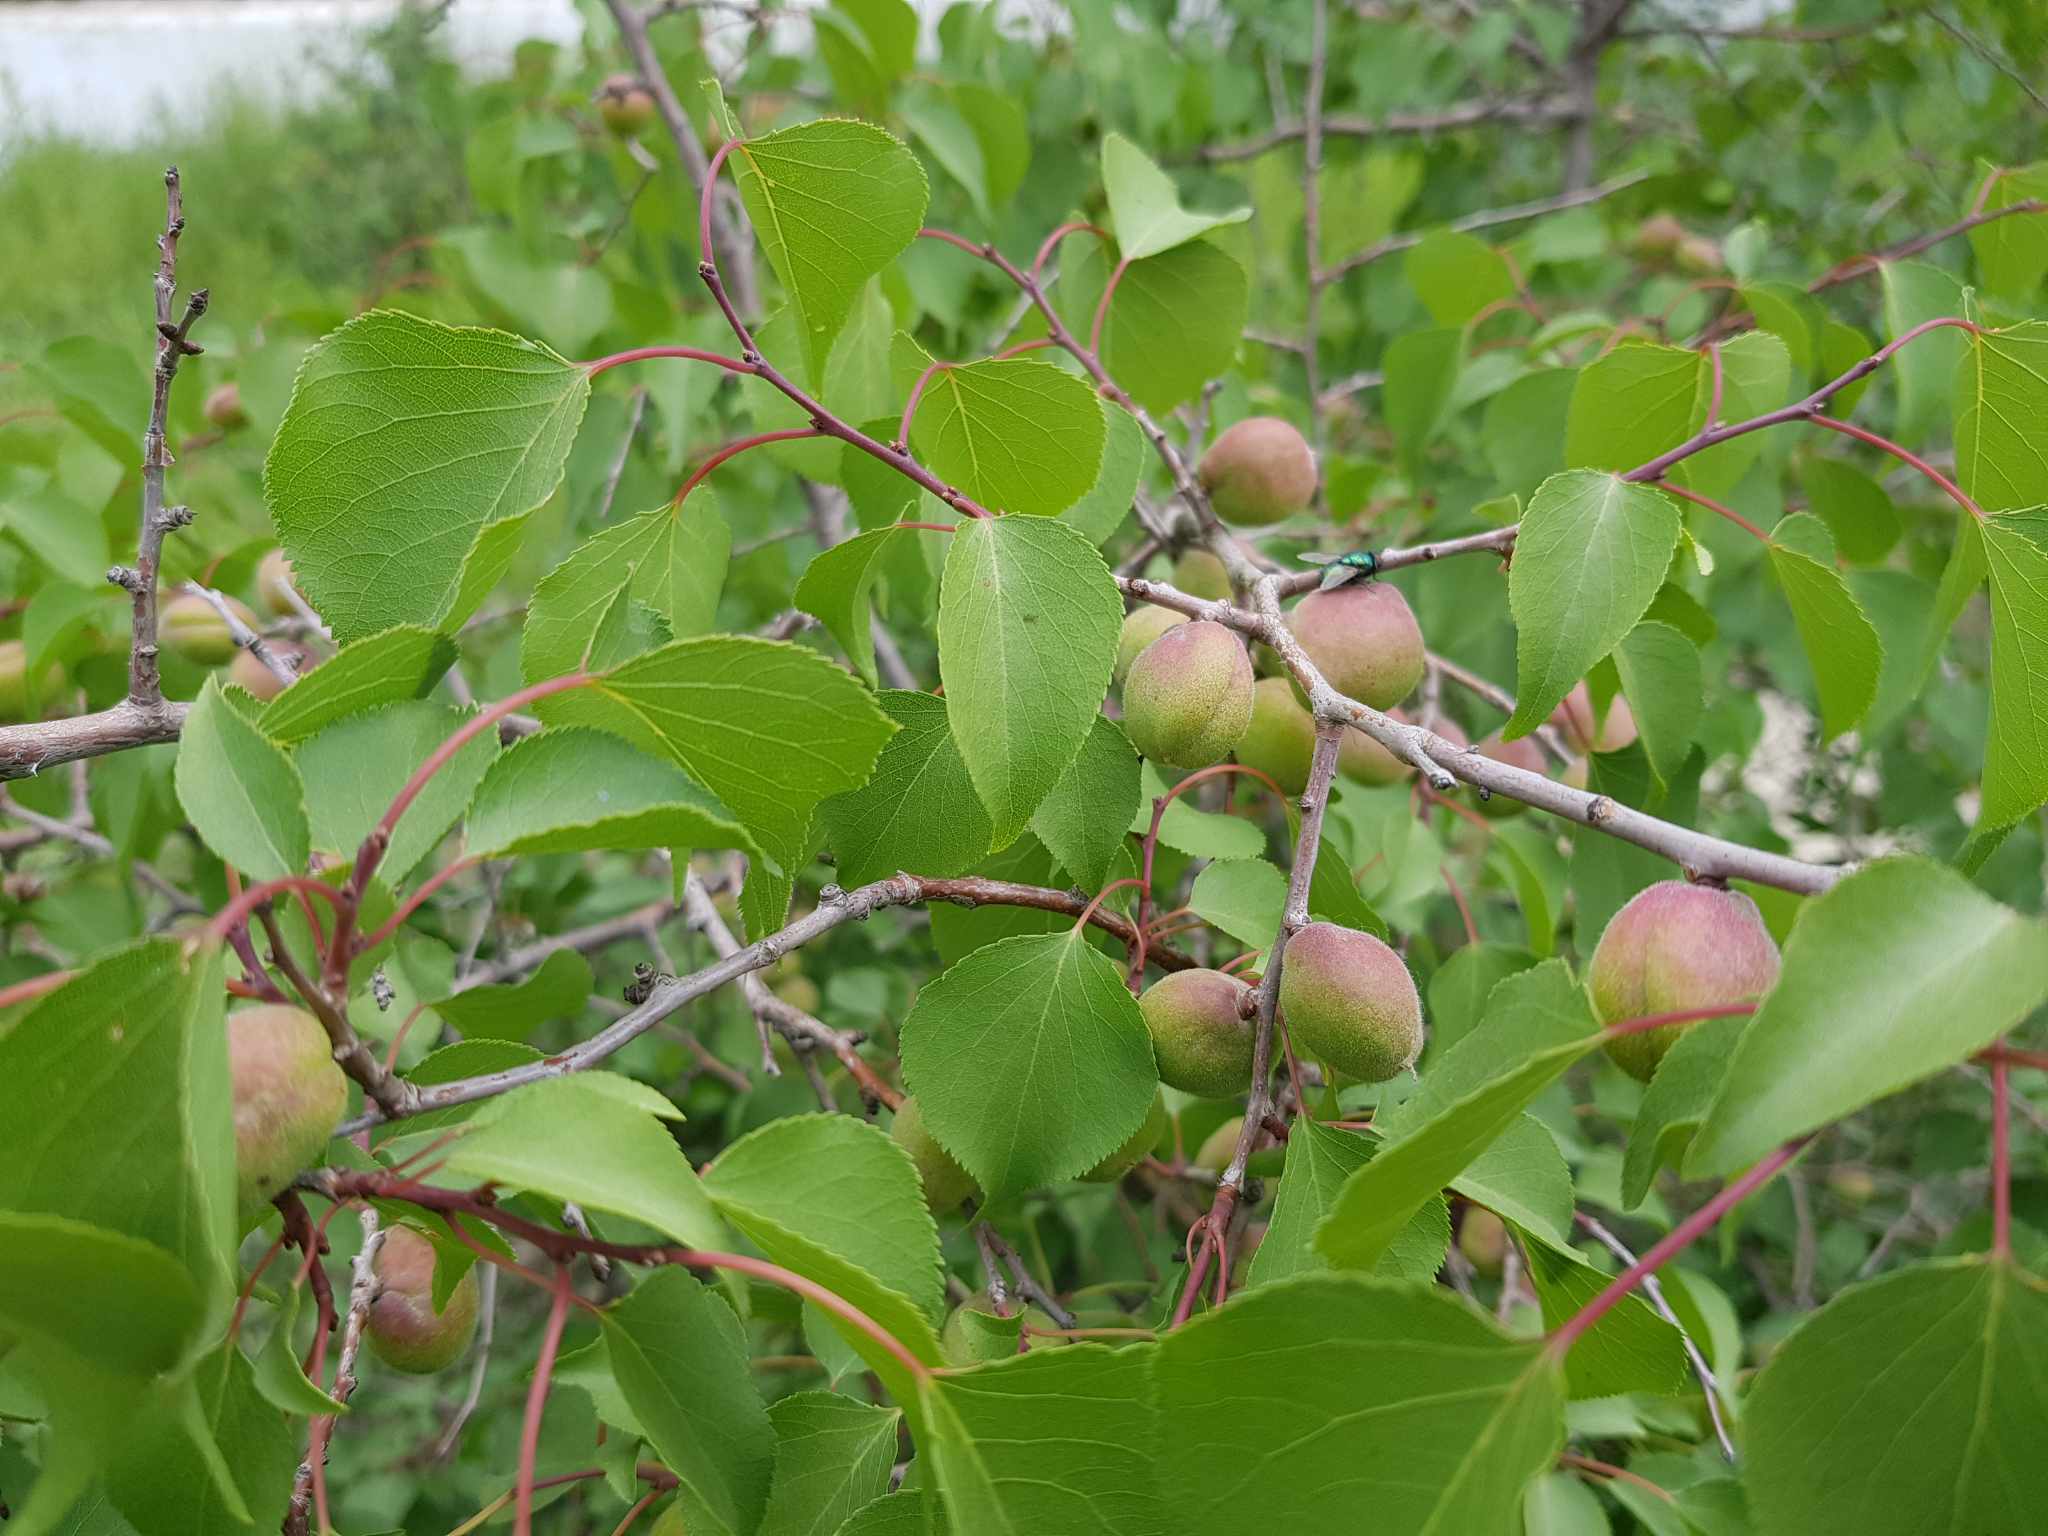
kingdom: Plantae
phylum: Tracheophyta
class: Magnoliopsida
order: Rosales
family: Rosaceae
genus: Prunus
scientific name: Prunus sibirica
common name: Siberian apricot
